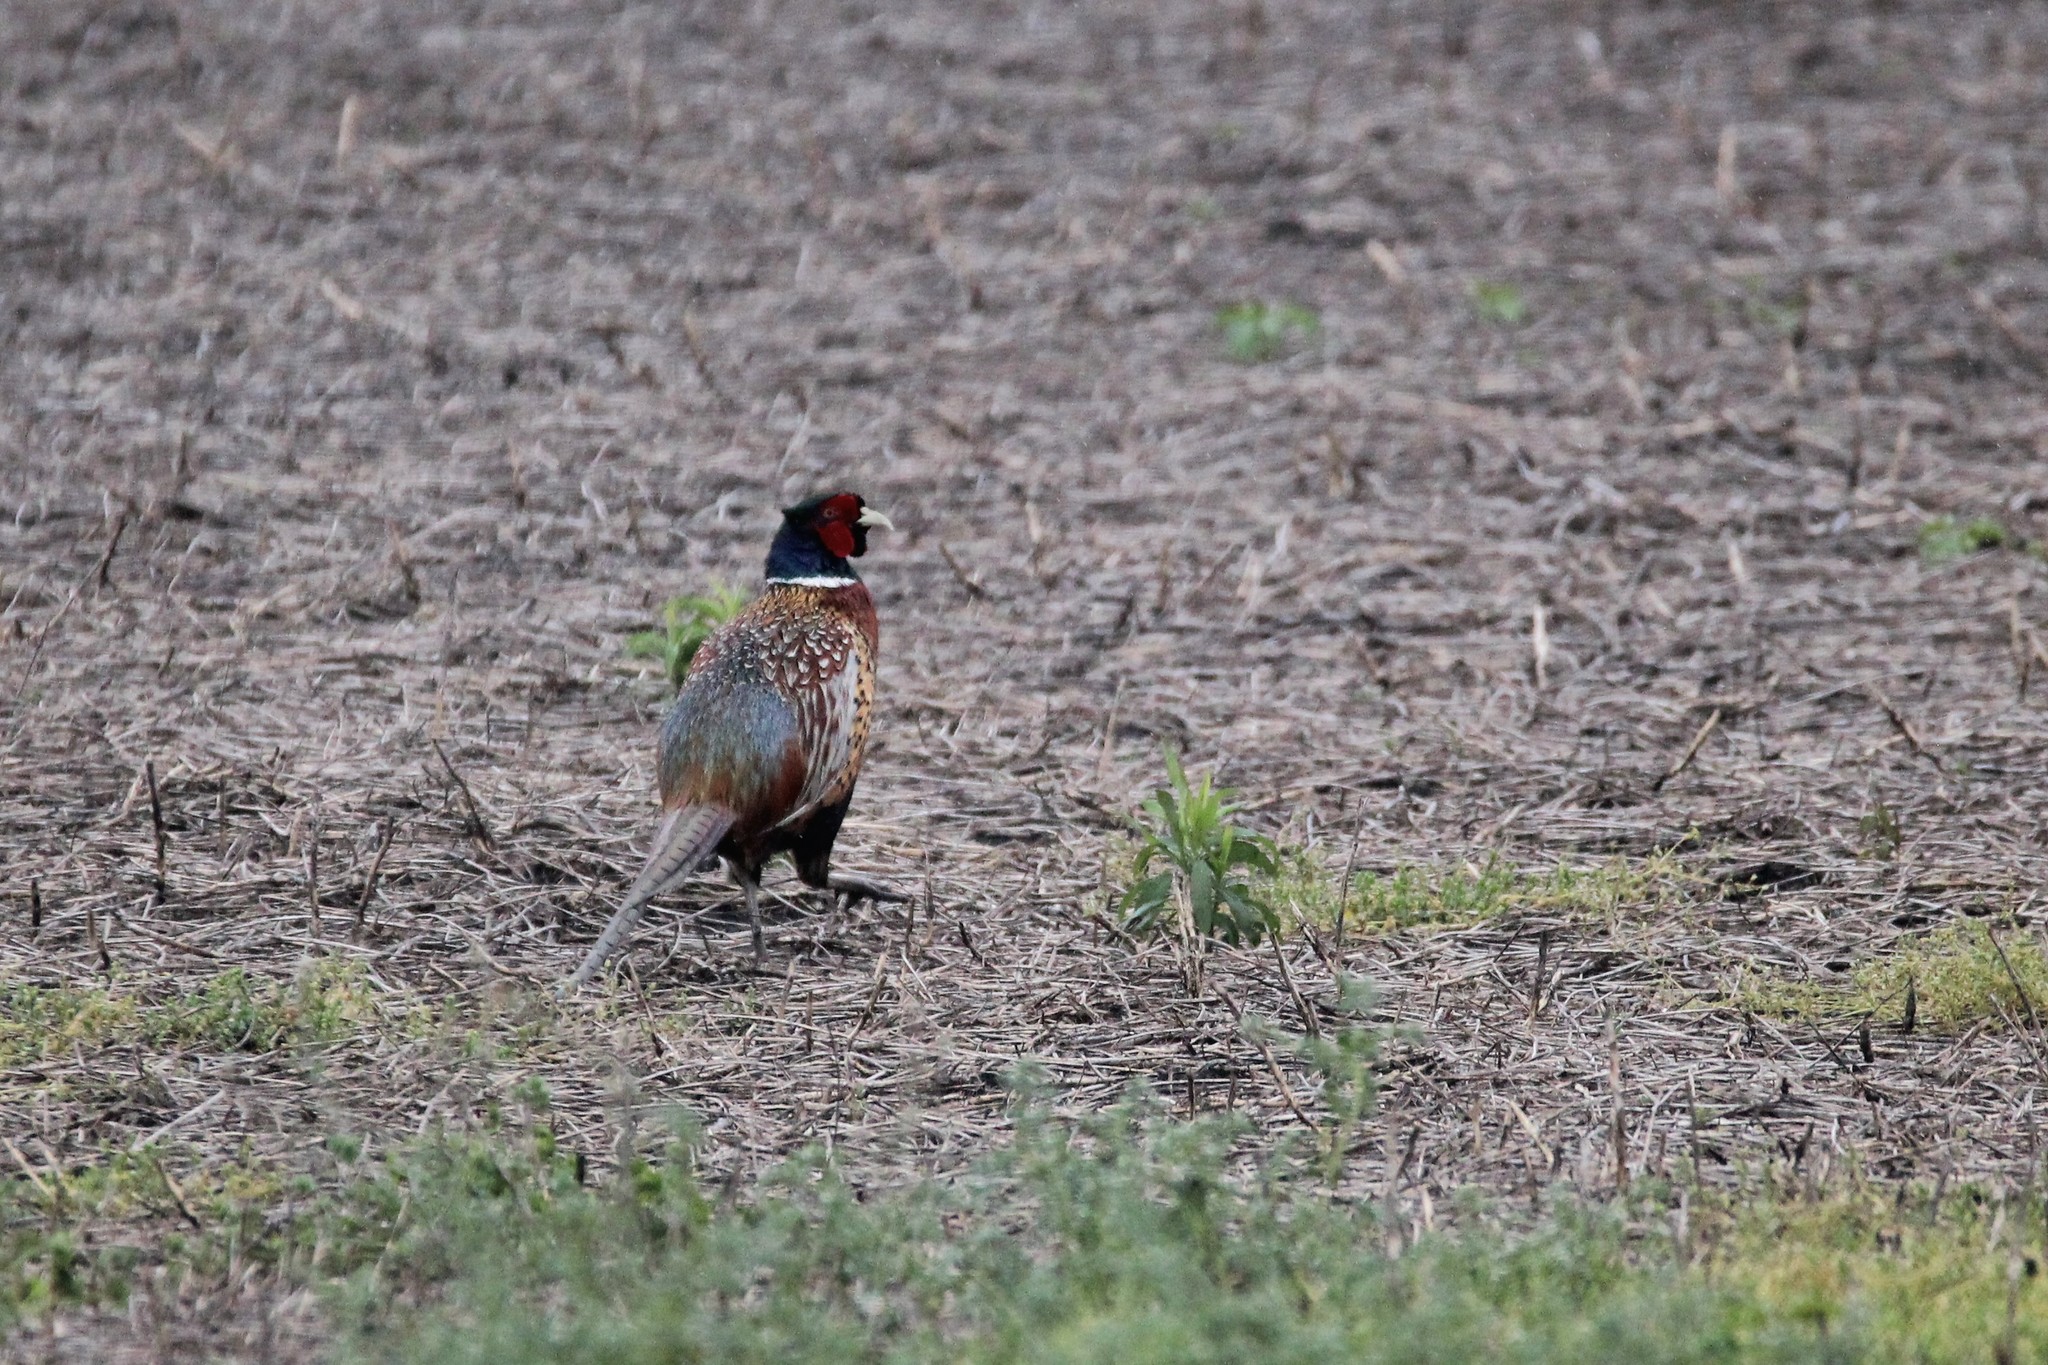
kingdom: Animalia
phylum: Chordata
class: Aves
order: Galliformes
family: Phasianidae
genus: Phasianus
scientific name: Phasianus colchicus
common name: Common pheasant
